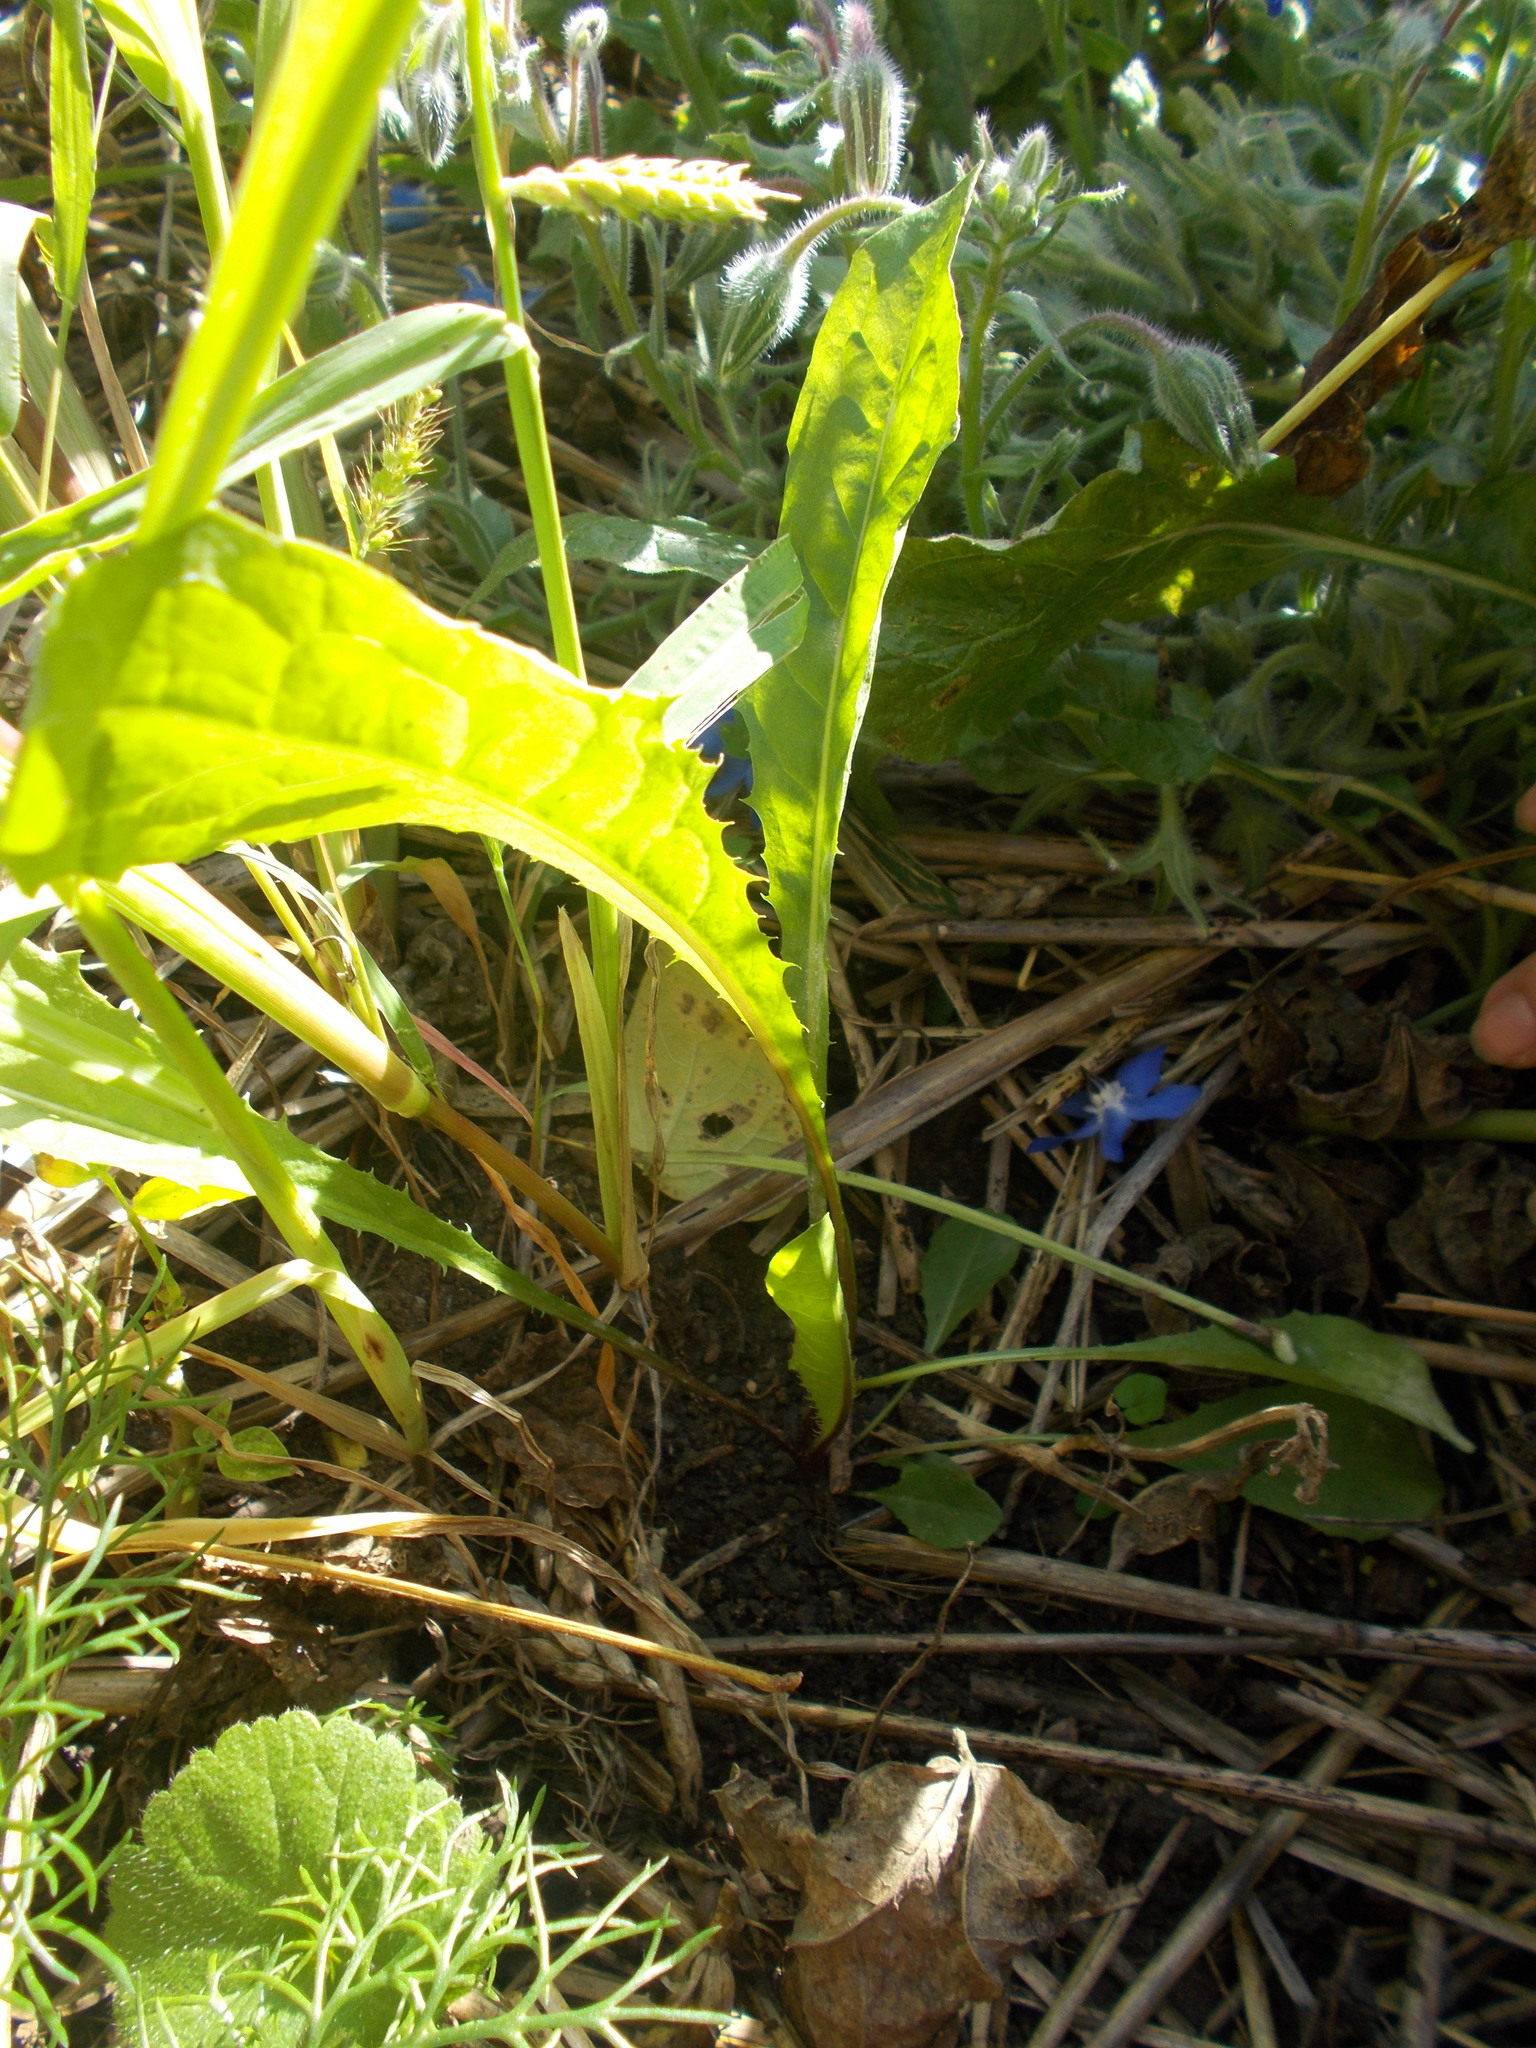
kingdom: Plantae
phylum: Tracheophyta
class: Magnoliopsida
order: Asterales
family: Asteraceae
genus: Taraxacum
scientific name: Taraxacum officinale
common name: Common dandelion
